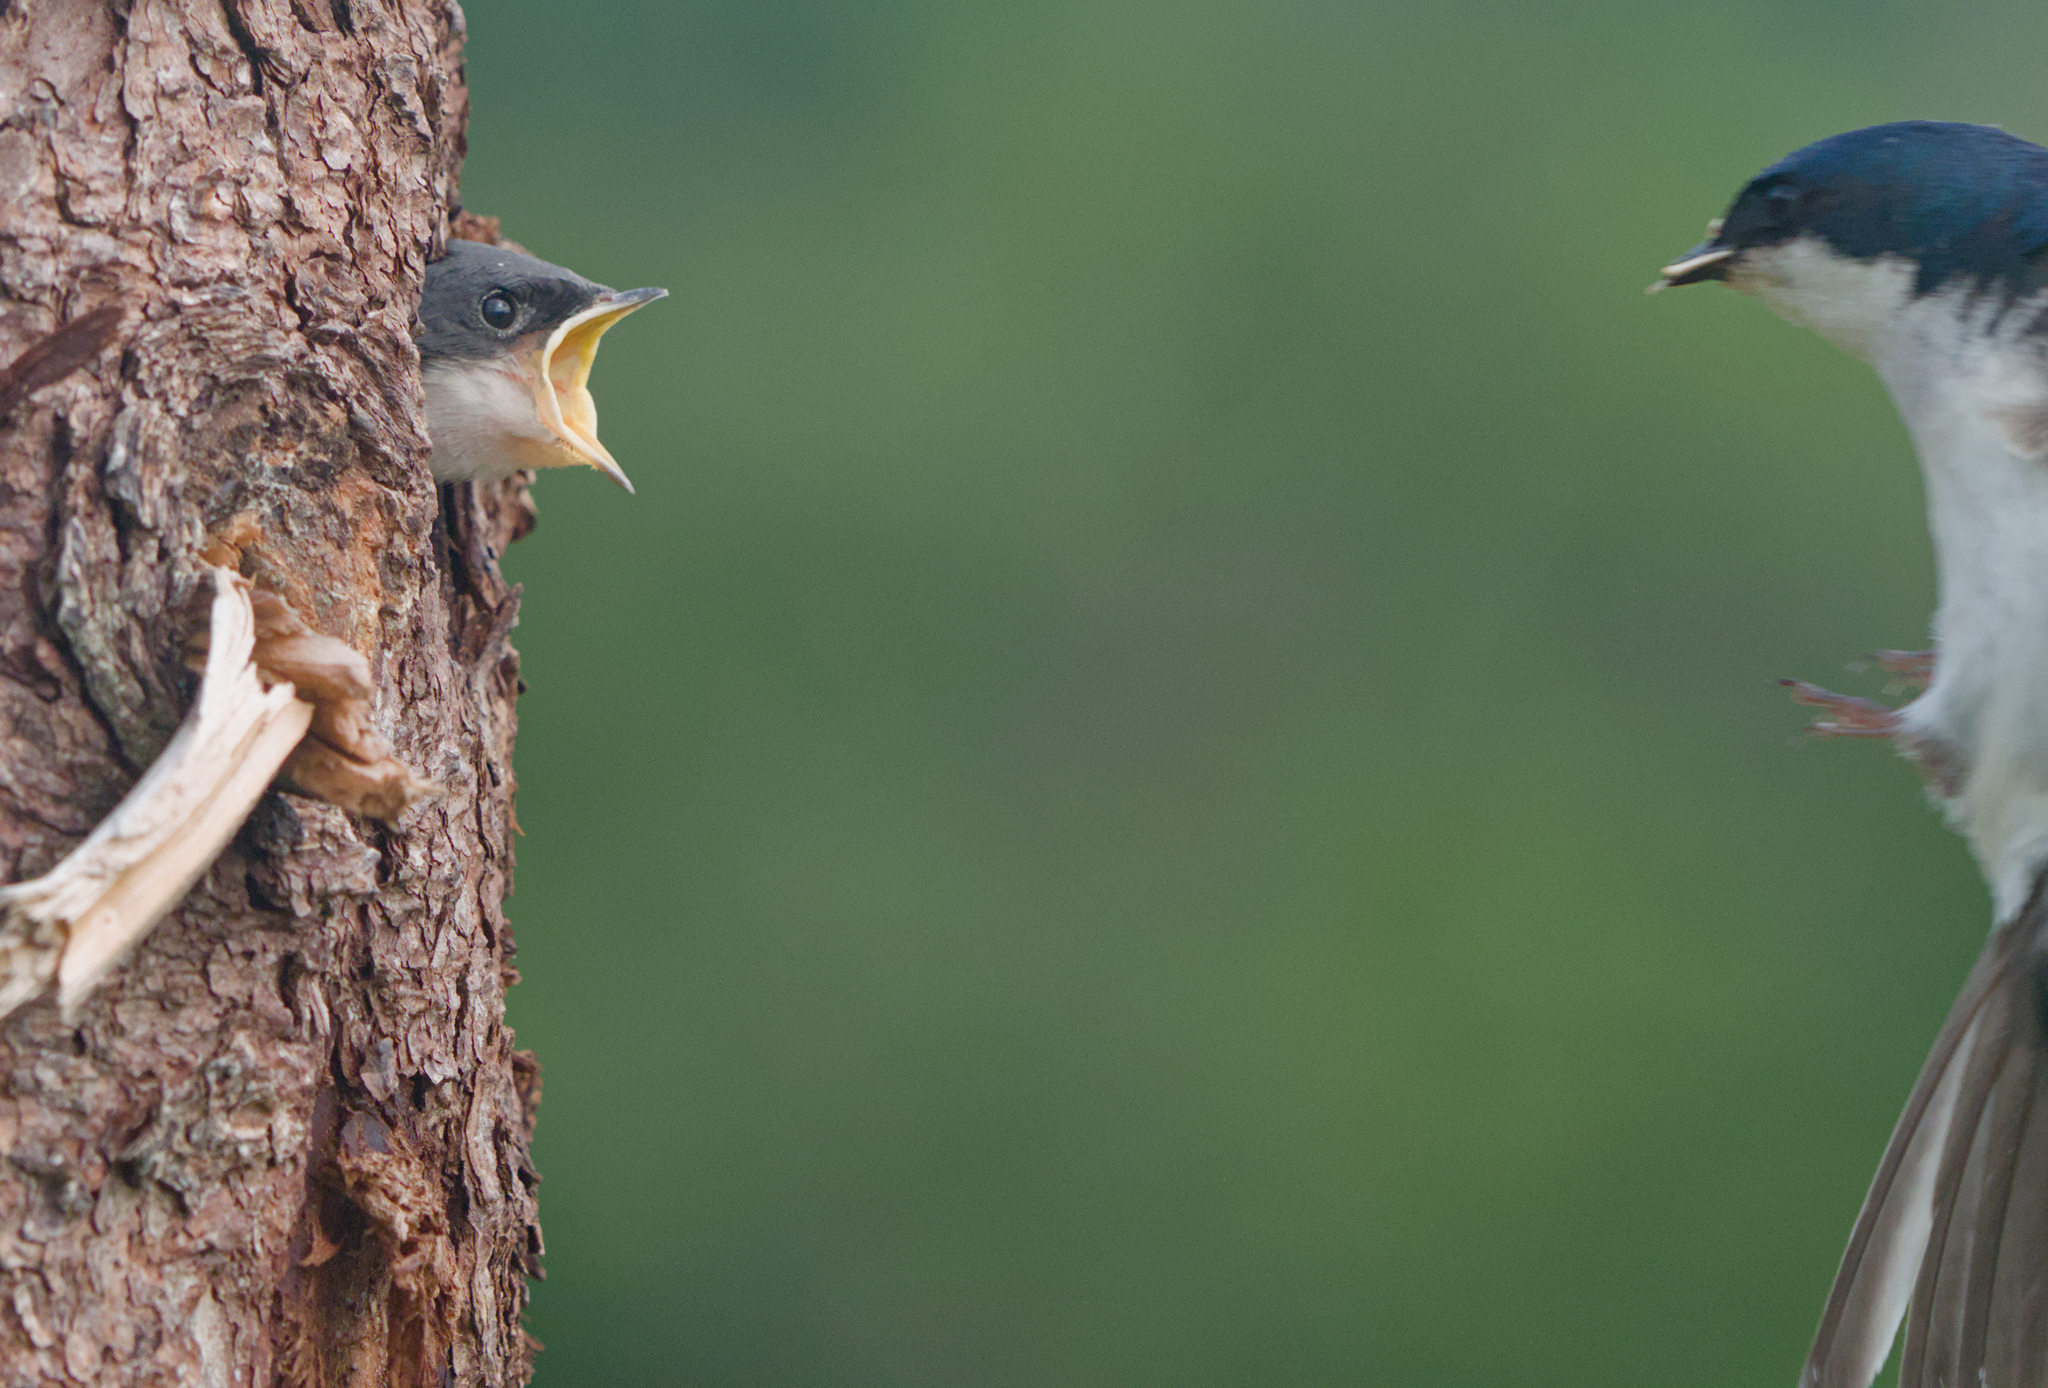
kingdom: Animalia
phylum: Chordata
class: Aves
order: Passeriformes
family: Hirundinidae
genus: Tachycineta
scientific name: Tachycineta bicolor
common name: Tree swallow
